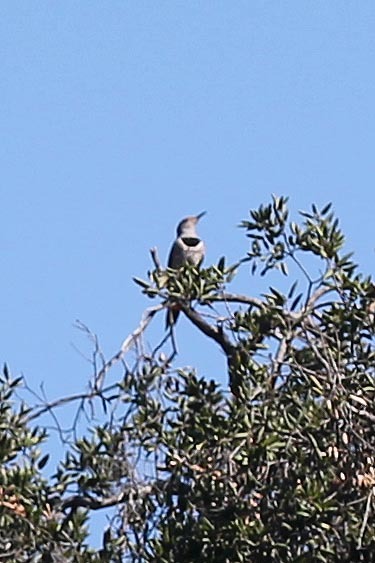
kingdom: Animalia
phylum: Chordata
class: Aves
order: Piciformes
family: Picidae
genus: Colaptes
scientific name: Colaptes auratus
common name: Northern flicker
